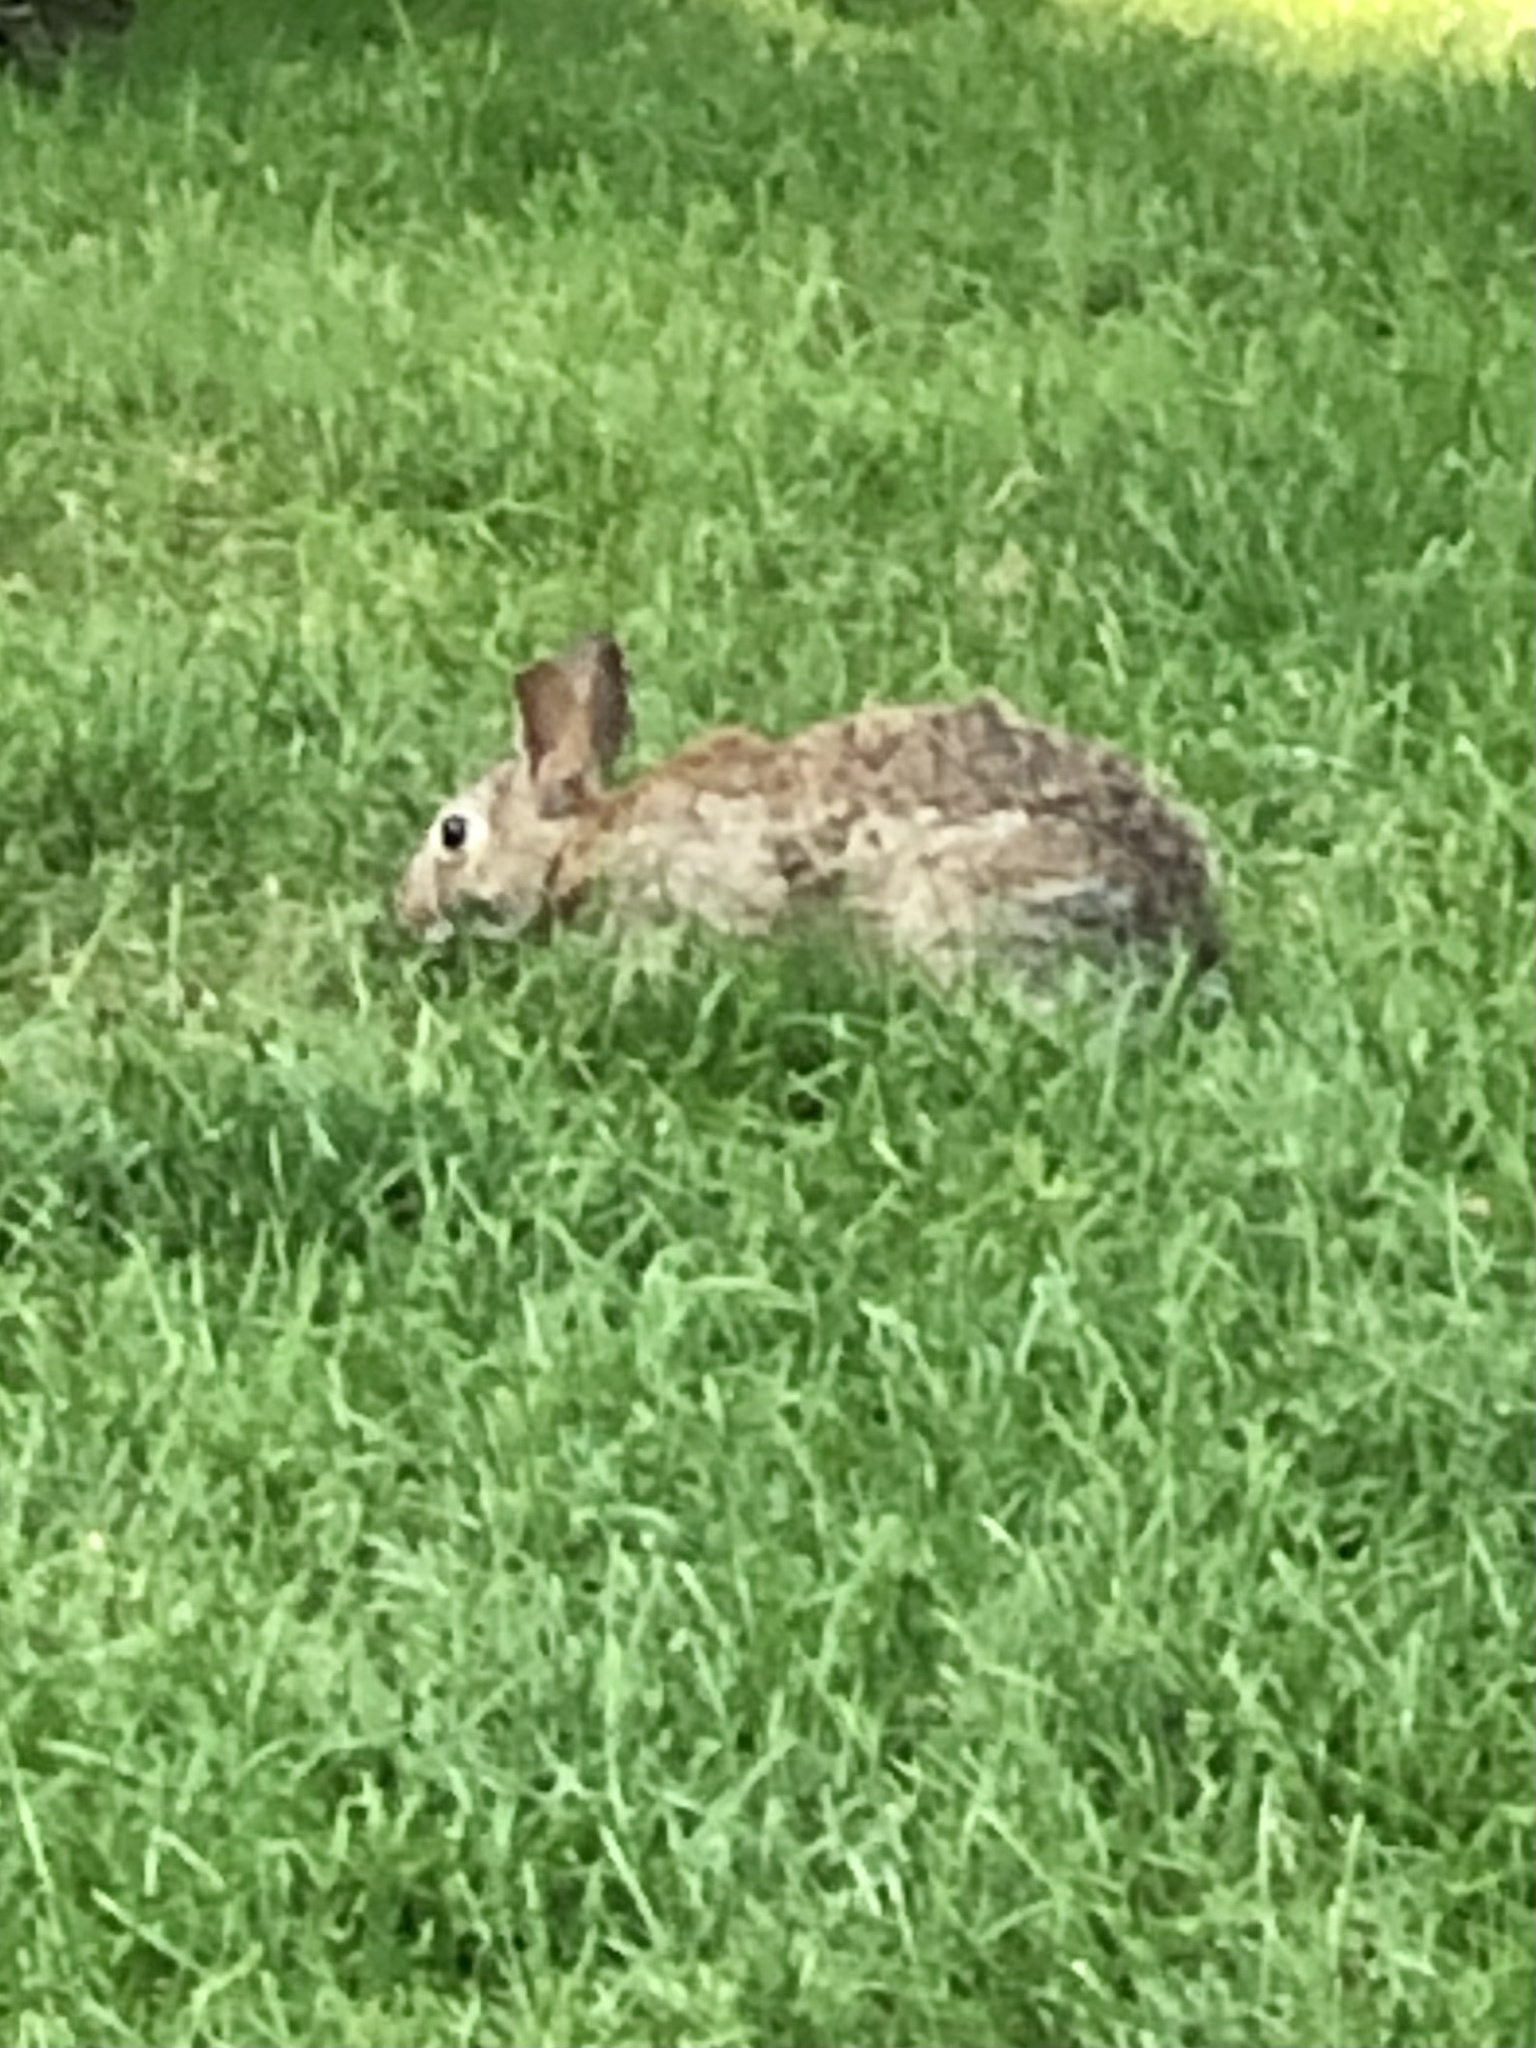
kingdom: Animalia
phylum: Chordata
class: Mammalia
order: Lagomorpha
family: Leporidae
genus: Sylvilagus
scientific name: Sylvilagus floridanus
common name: Eastern cottontail
